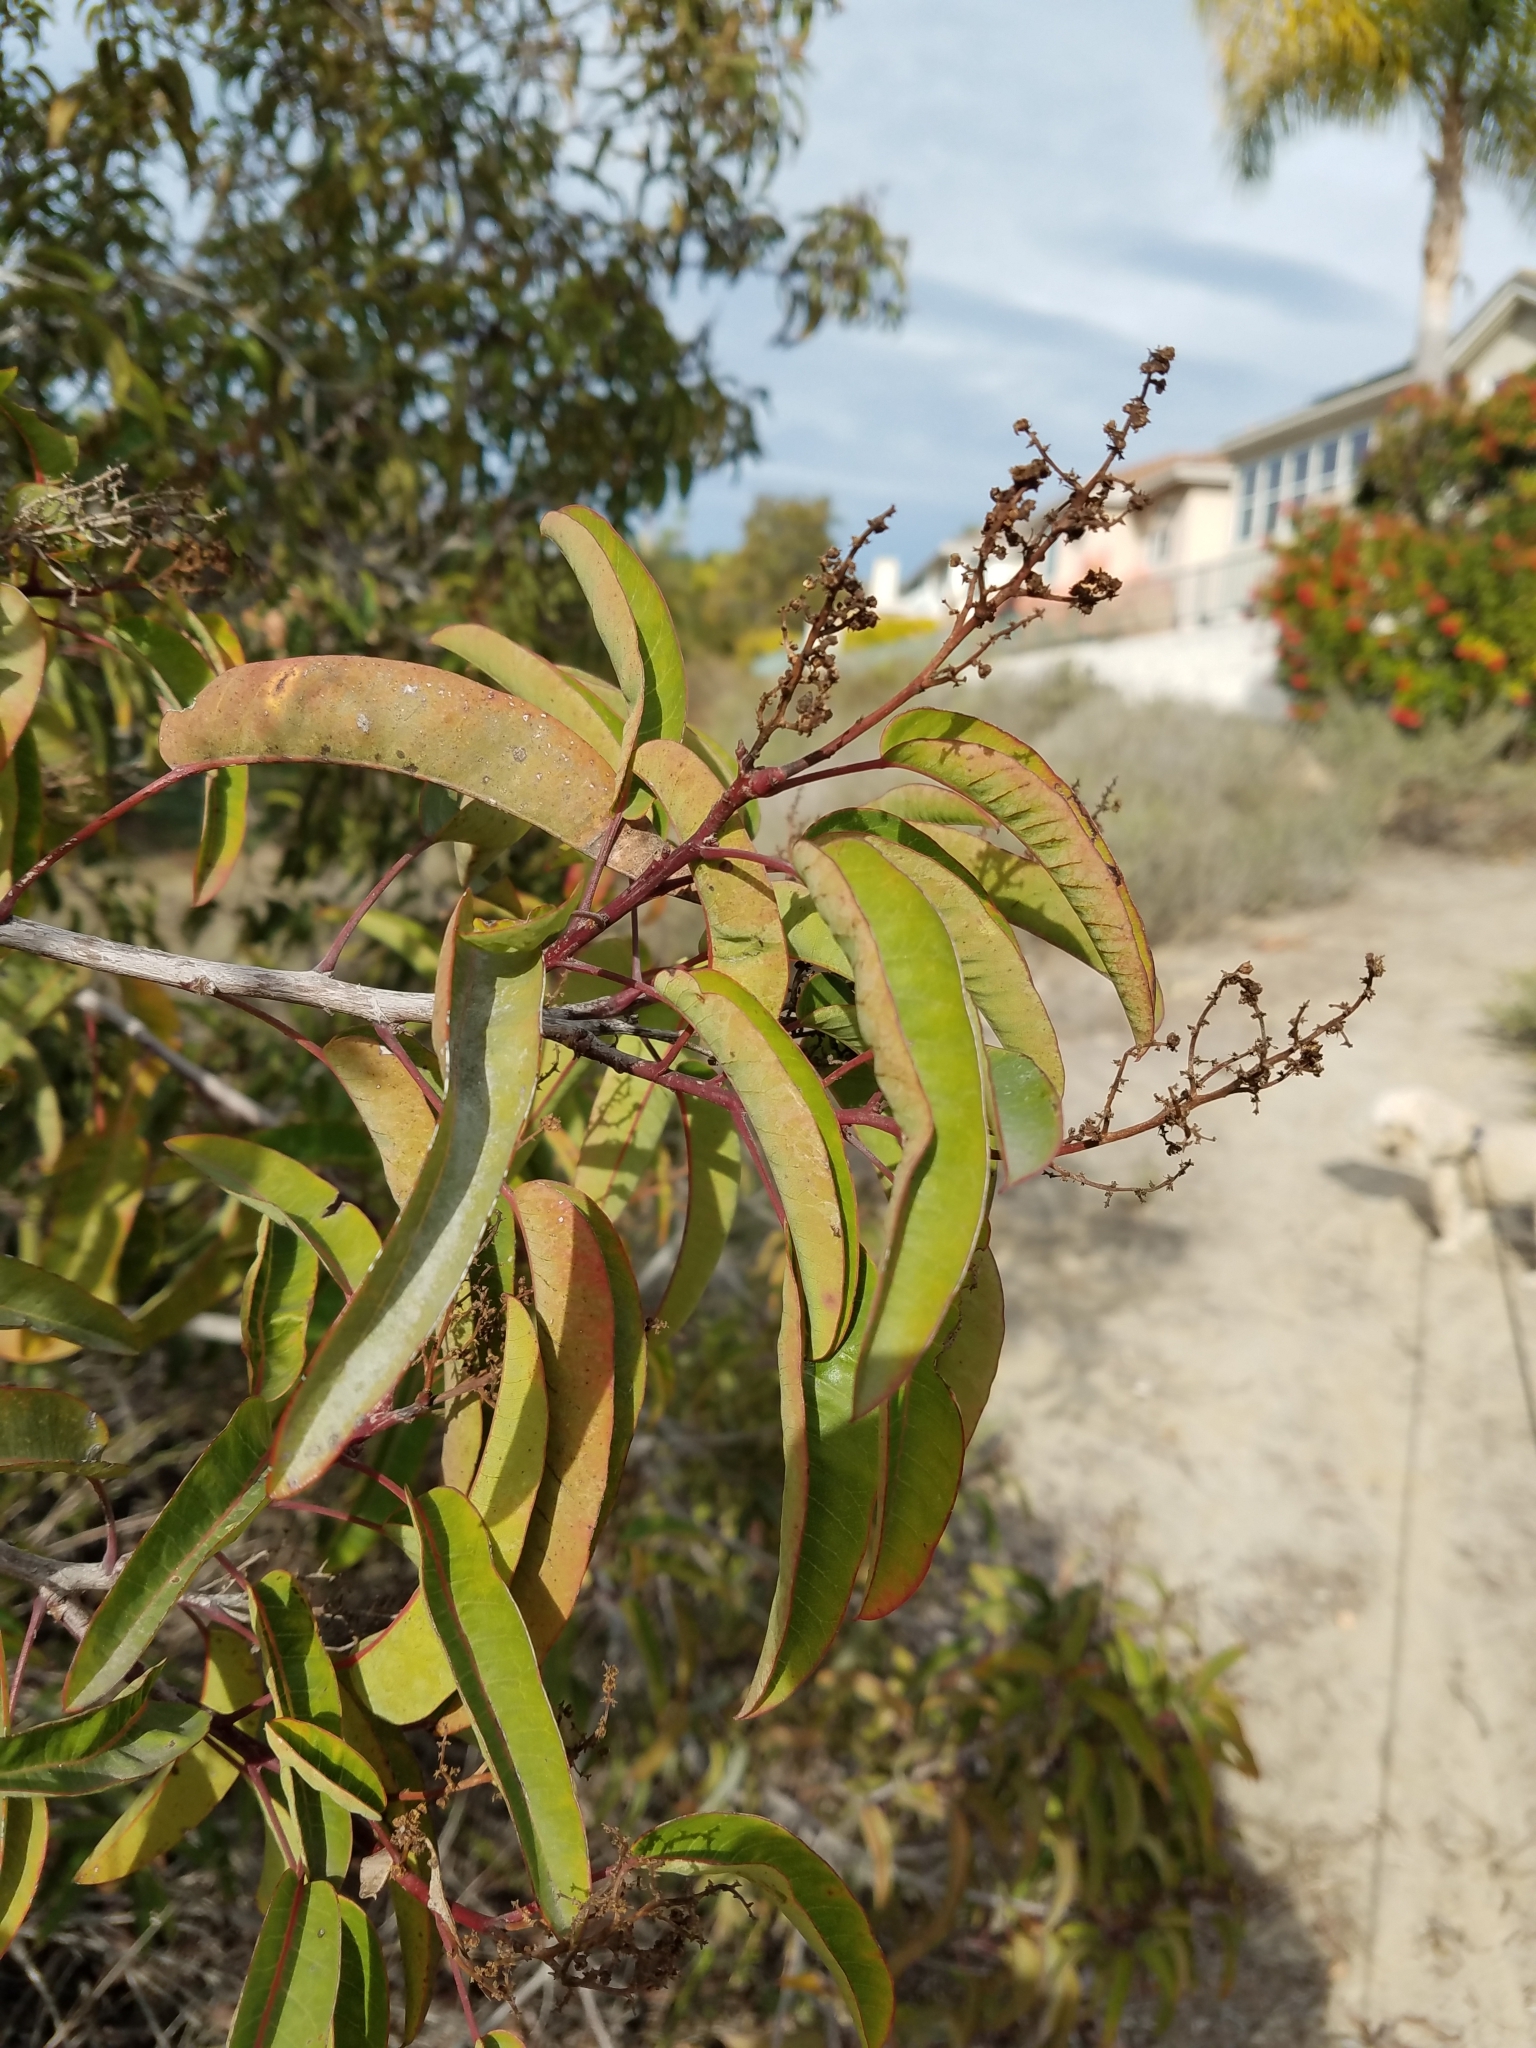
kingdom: Plantae
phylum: Tracheophyta
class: Magnoliopsida
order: Sapindales
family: Anacardiaceae
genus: Malosma
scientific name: Malosma laurina
